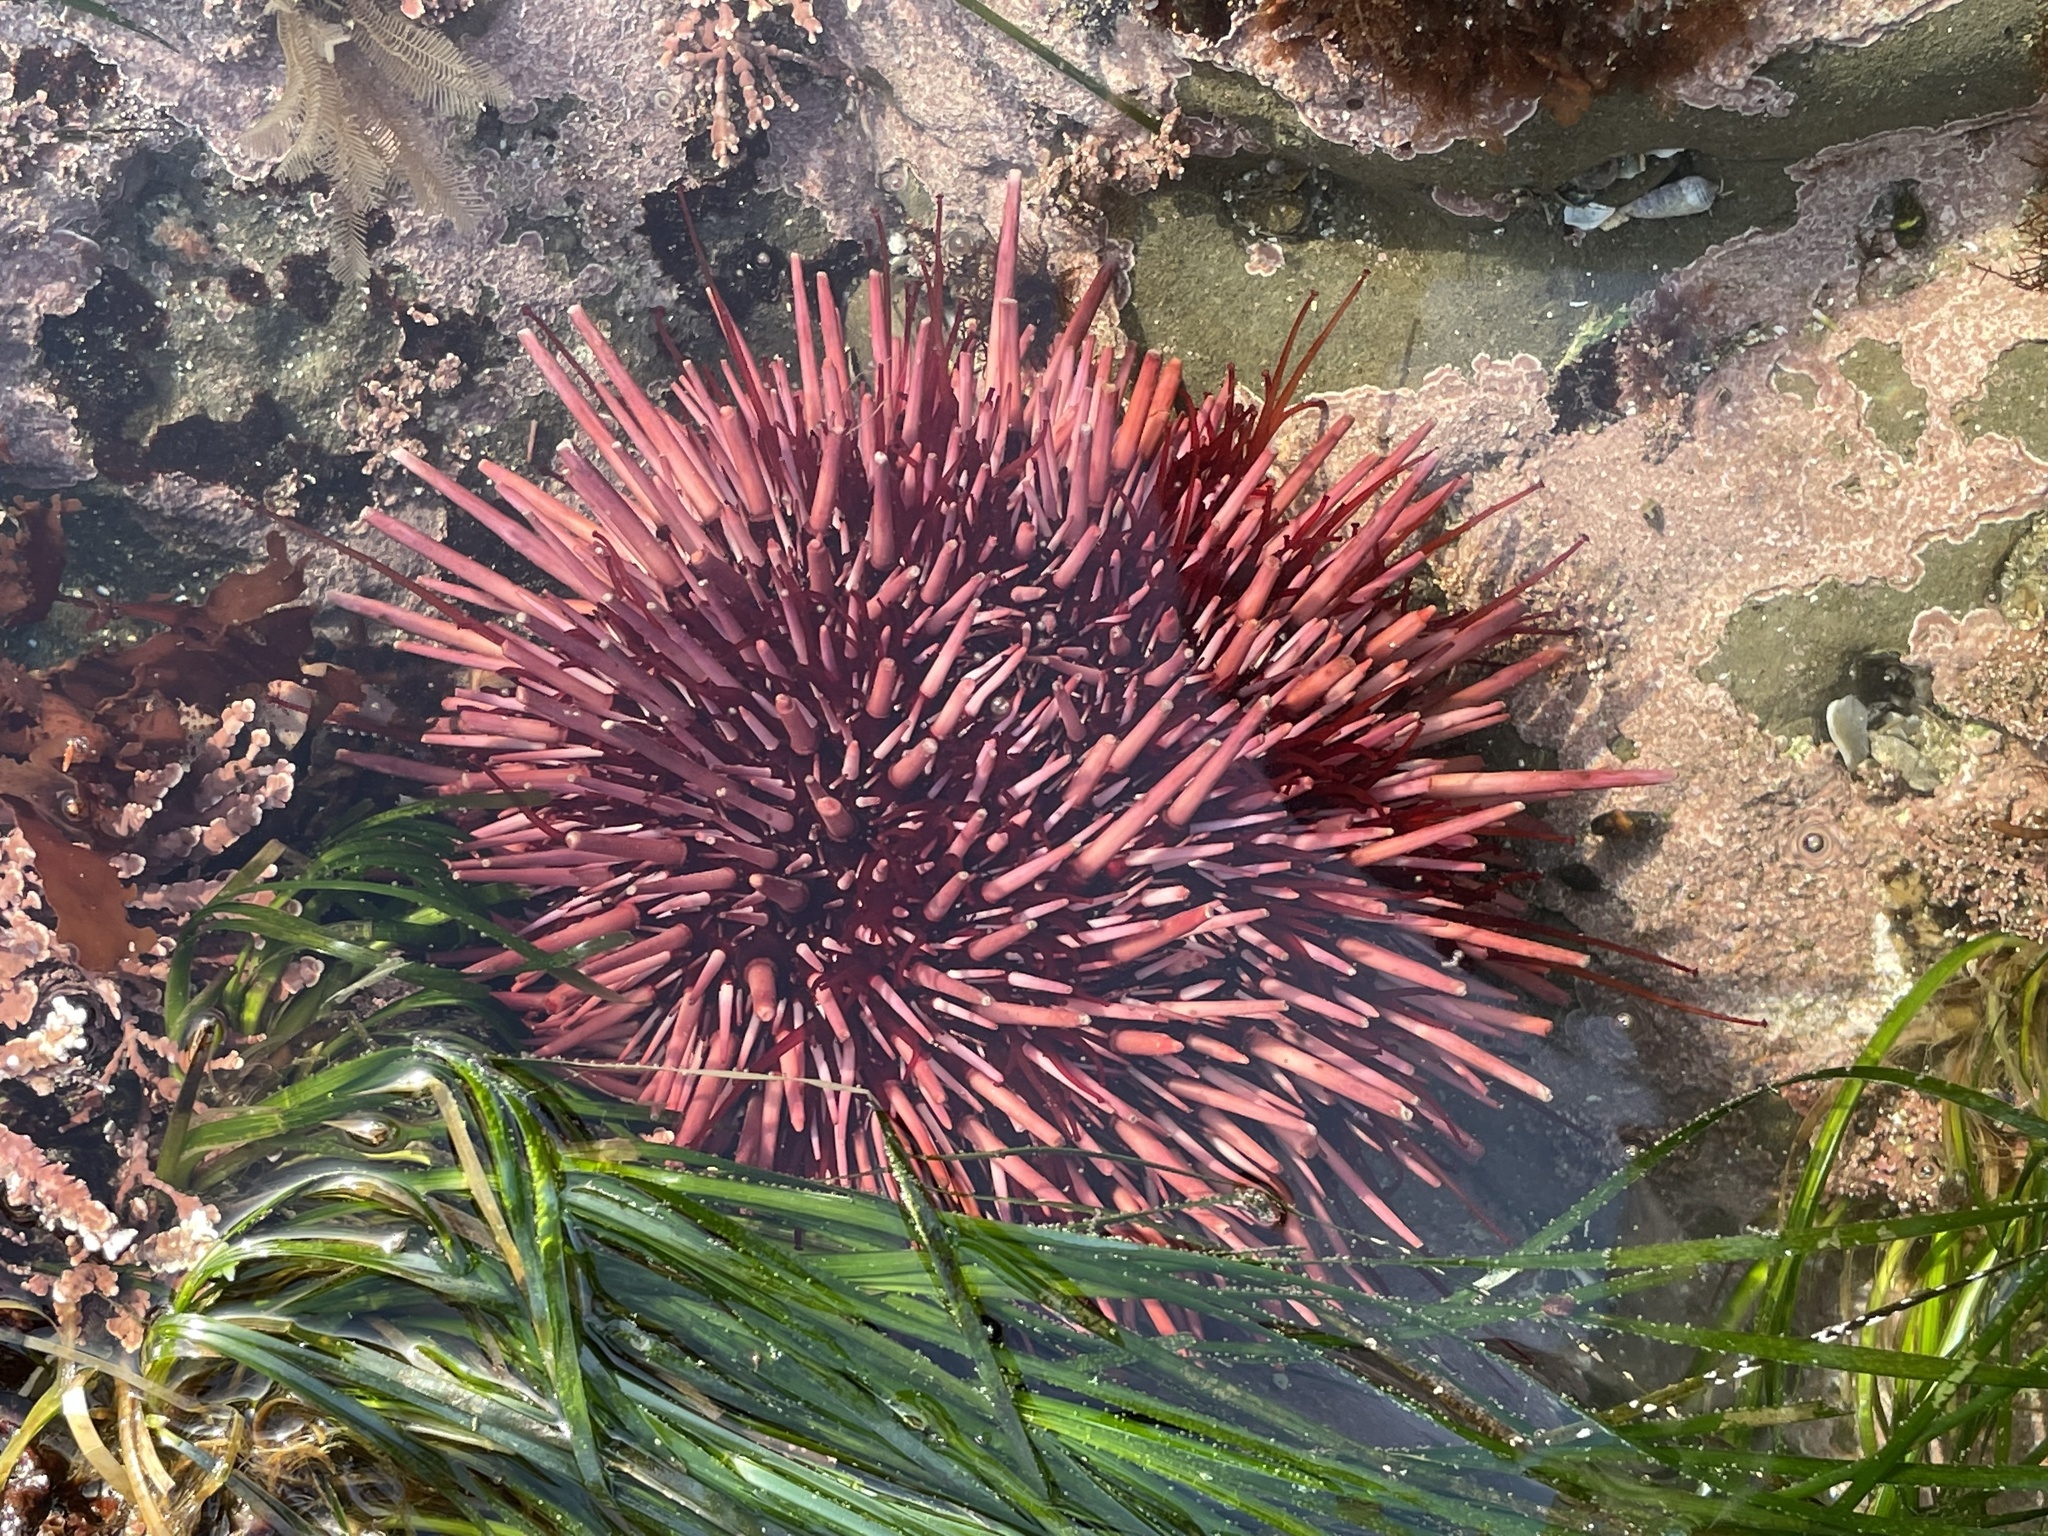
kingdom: Animalia
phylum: Echinodermata
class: Echinoidea
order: Camarodonta
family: Strongylocentrotidae
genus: Mesocentrotus
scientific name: Mesocentrotus franciscanus
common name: Red sea urchin
